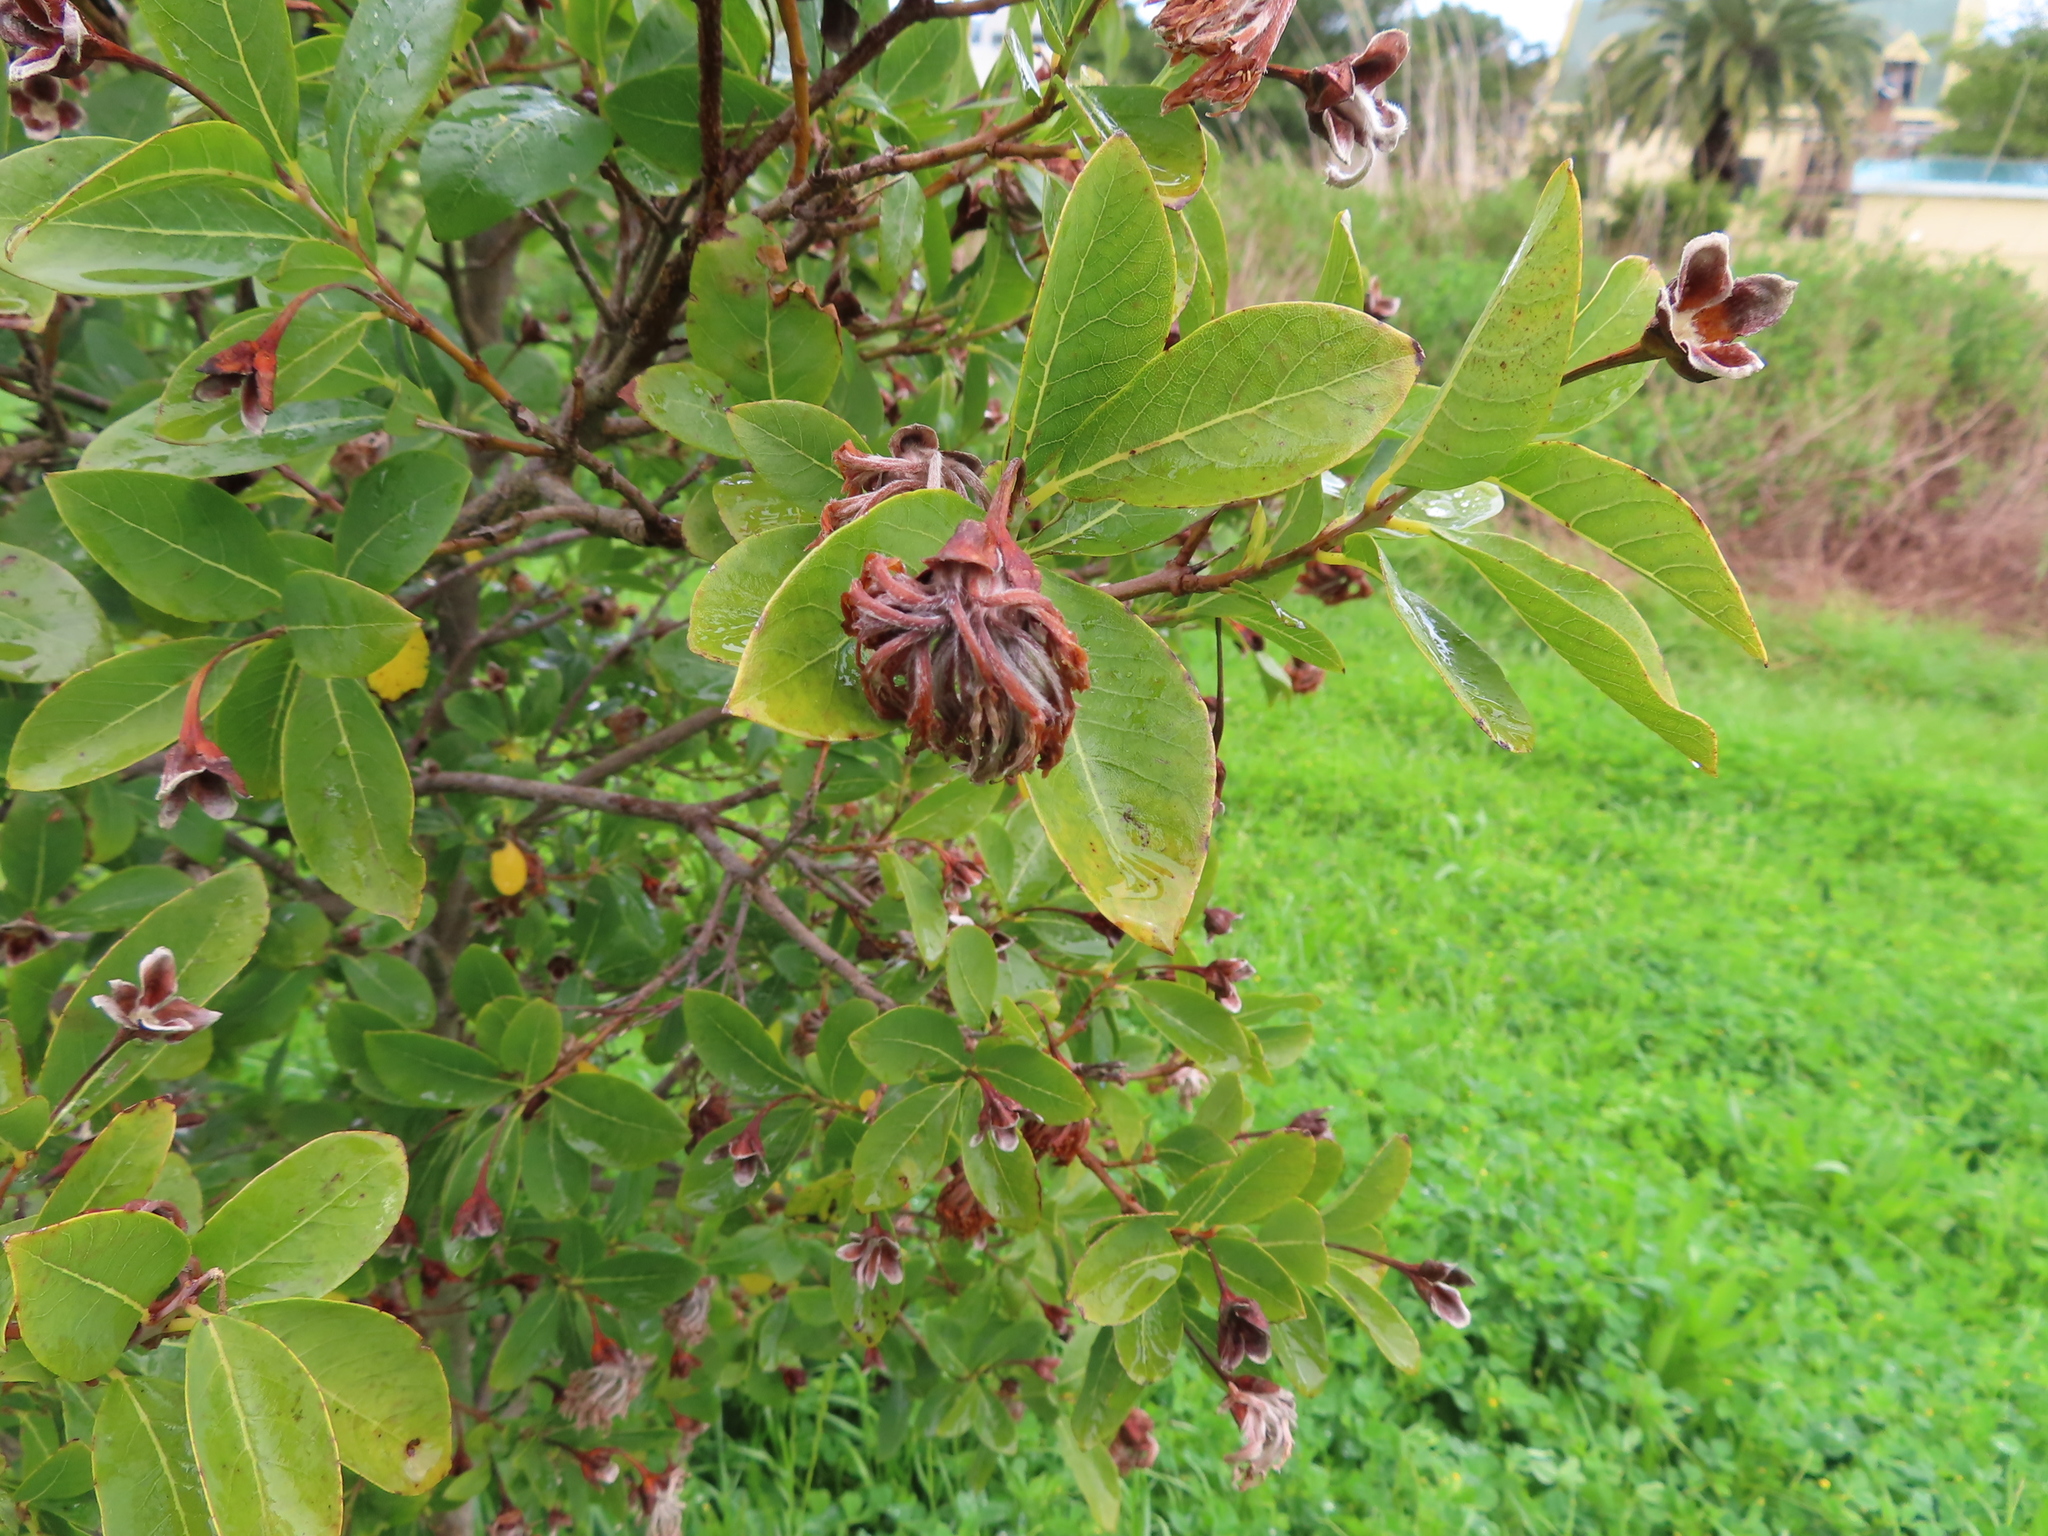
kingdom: Plantae
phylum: Tracheophyta
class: Magnoliopsida
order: Malvales
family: Thymelaeaceae
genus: Dais
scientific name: Dais cotinifolia
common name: Pompon tree
